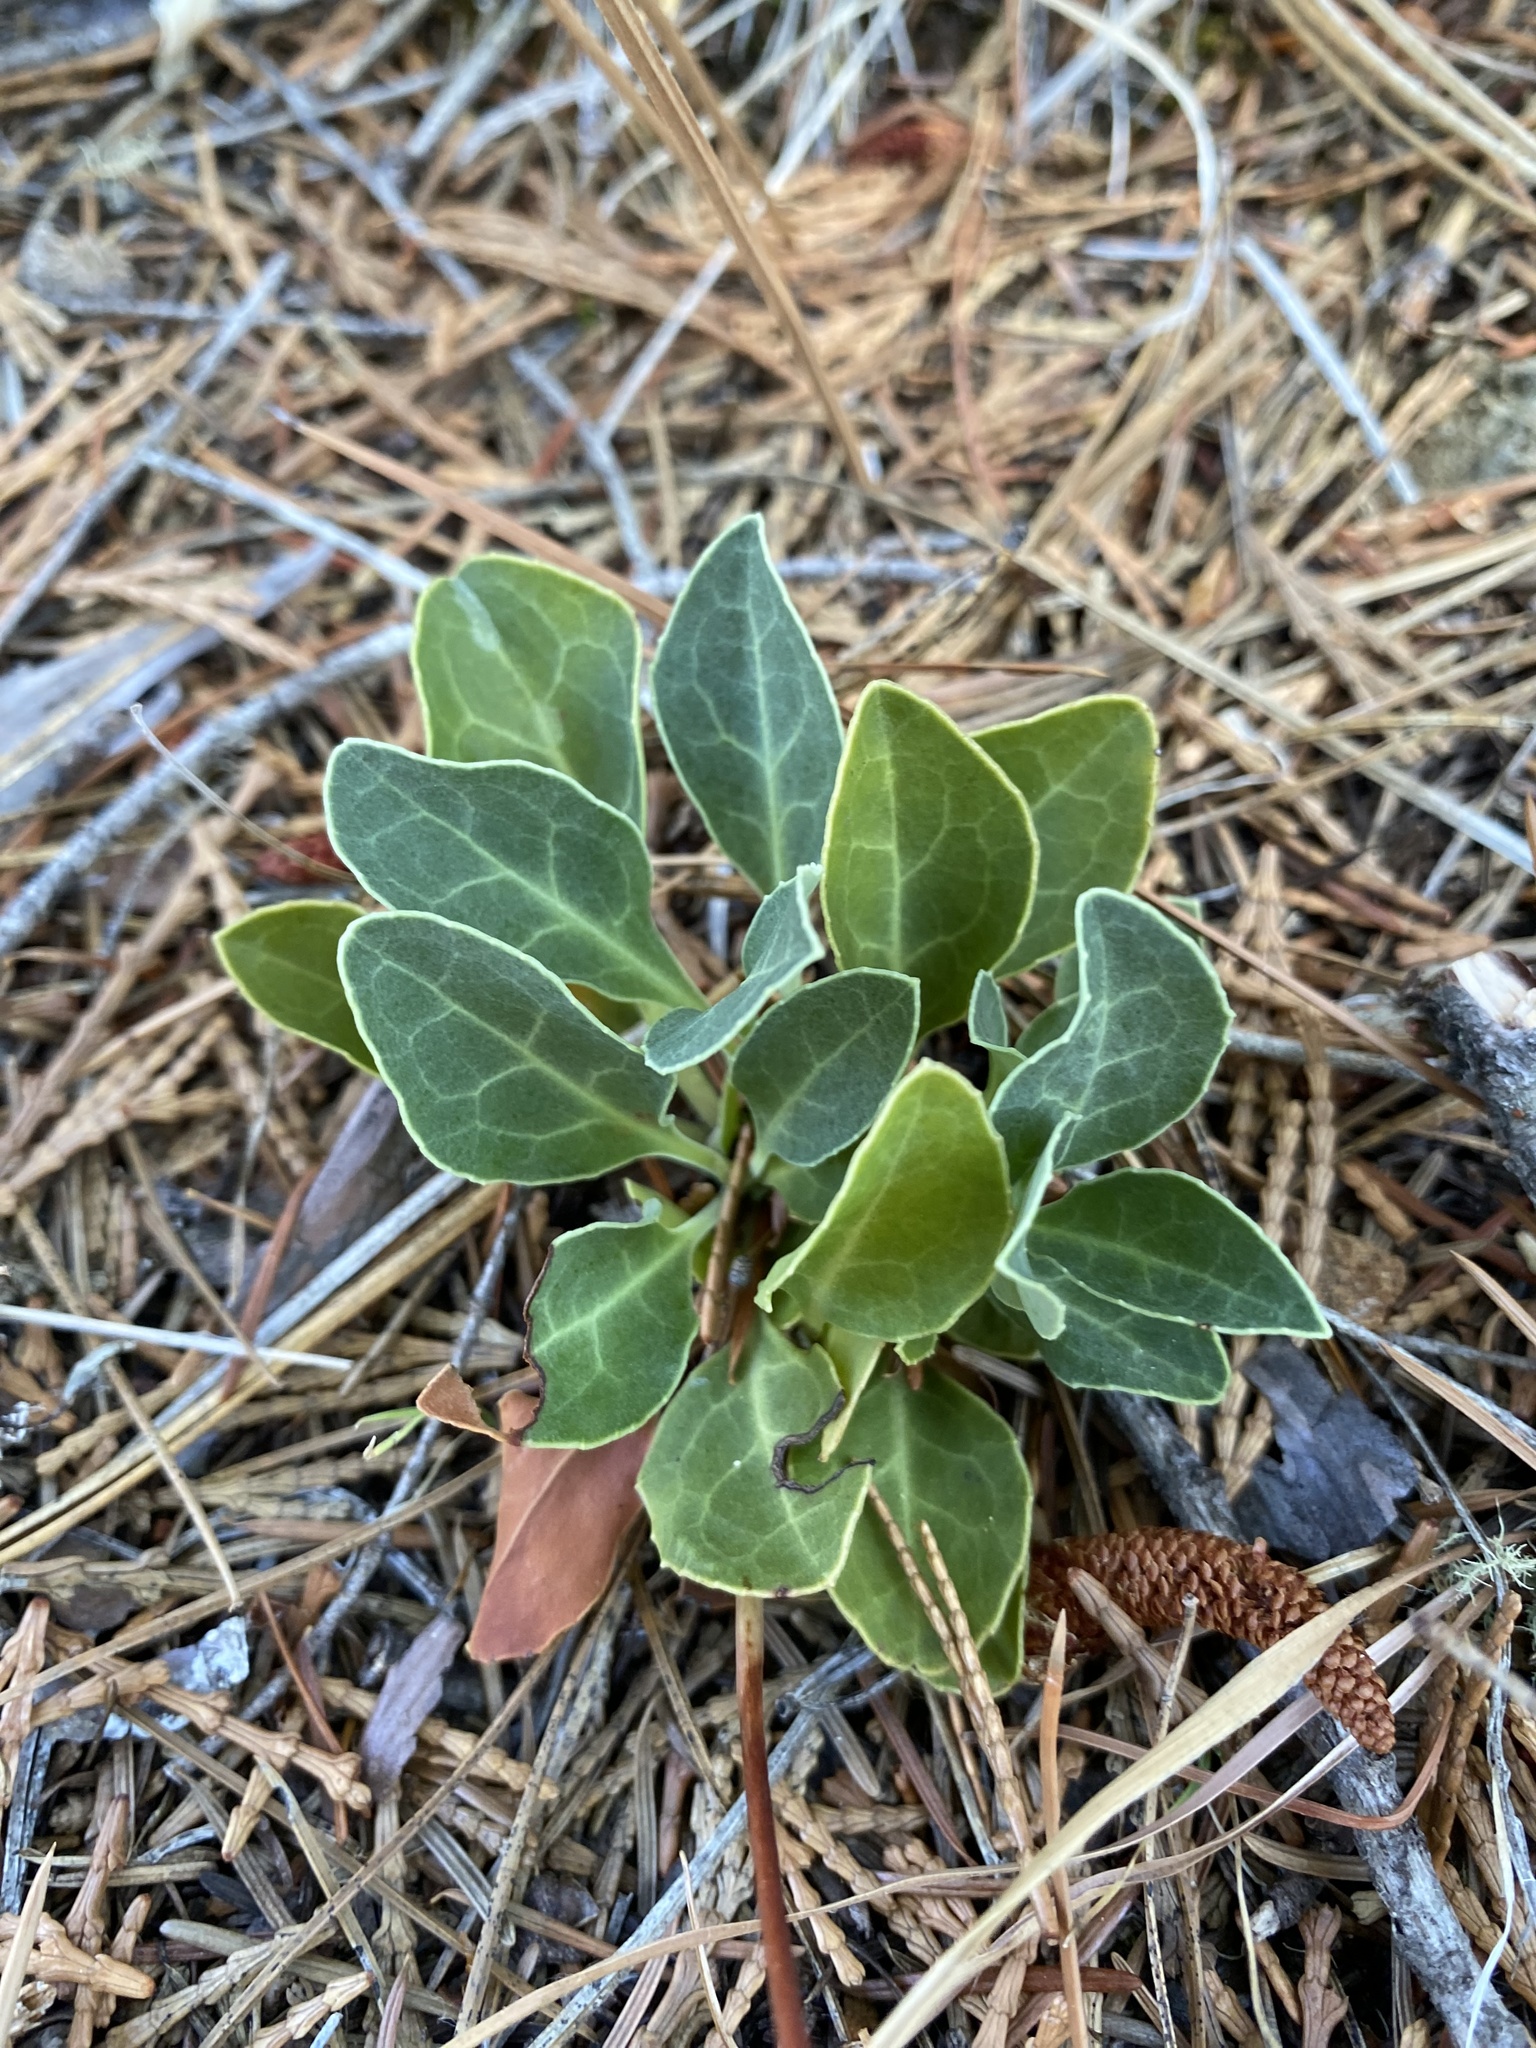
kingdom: Plantae
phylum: Tracheophyta
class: Magnoliopsida
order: Ericales
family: Ericaceae
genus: Pyrola
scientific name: Pyrola dentata
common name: Tooth-leaved wintergreen
